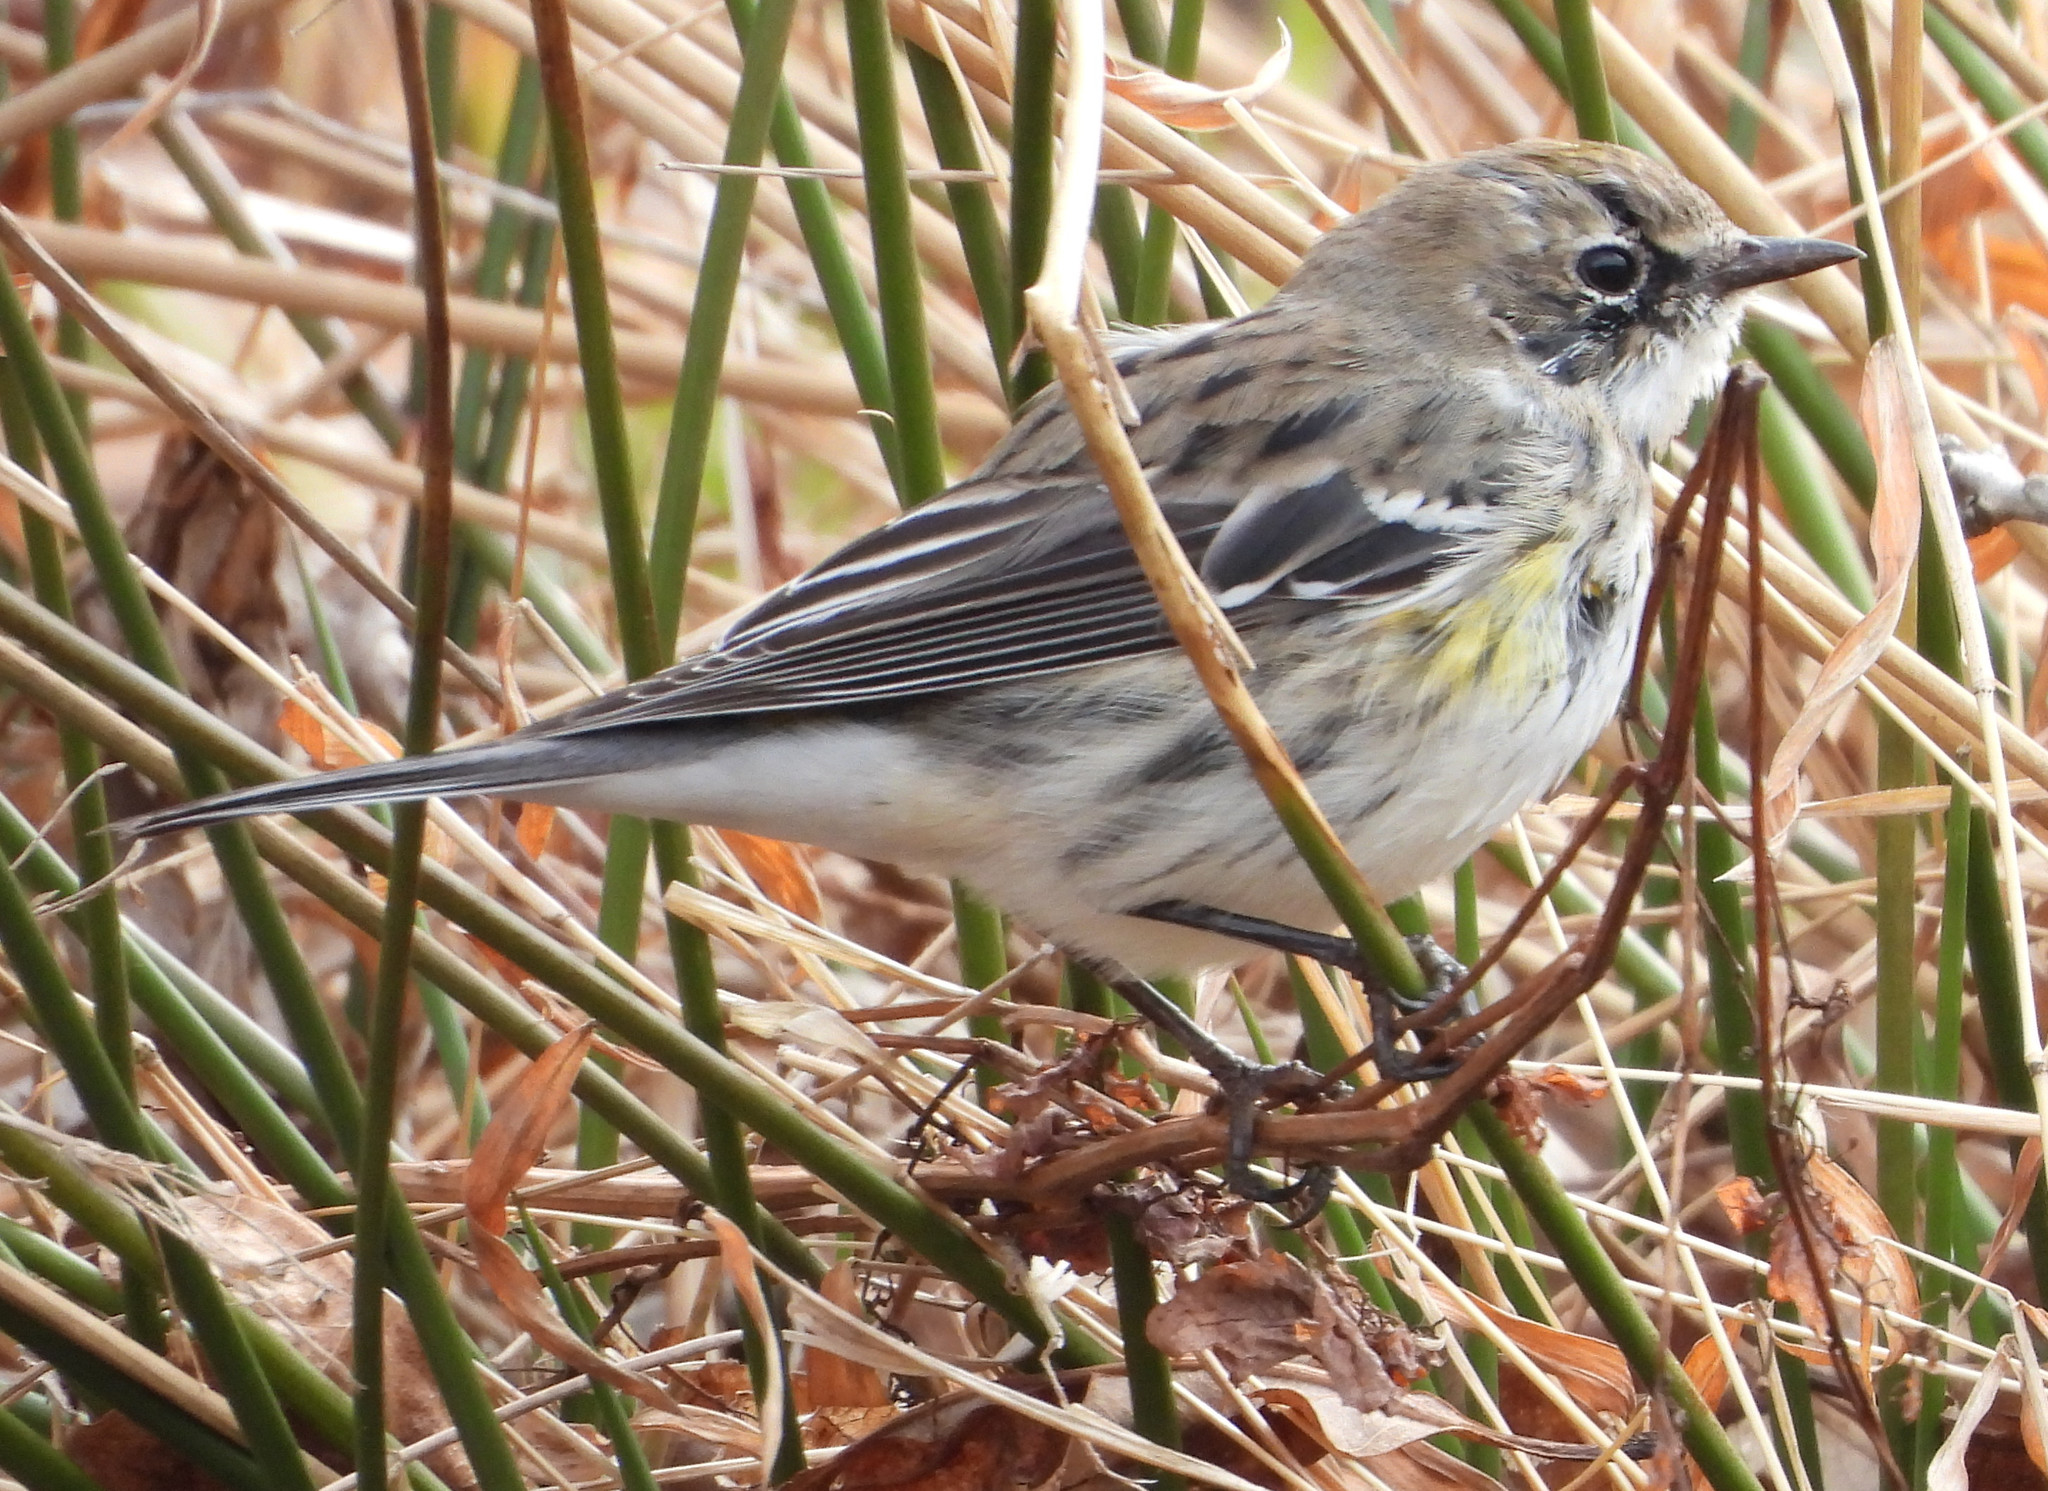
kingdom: Animalia
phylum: Chordata
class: Aves
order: Passeriformes
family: Parulidae
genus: Setophaga
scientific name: Setophaga coronata
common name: Myrtle warbler
